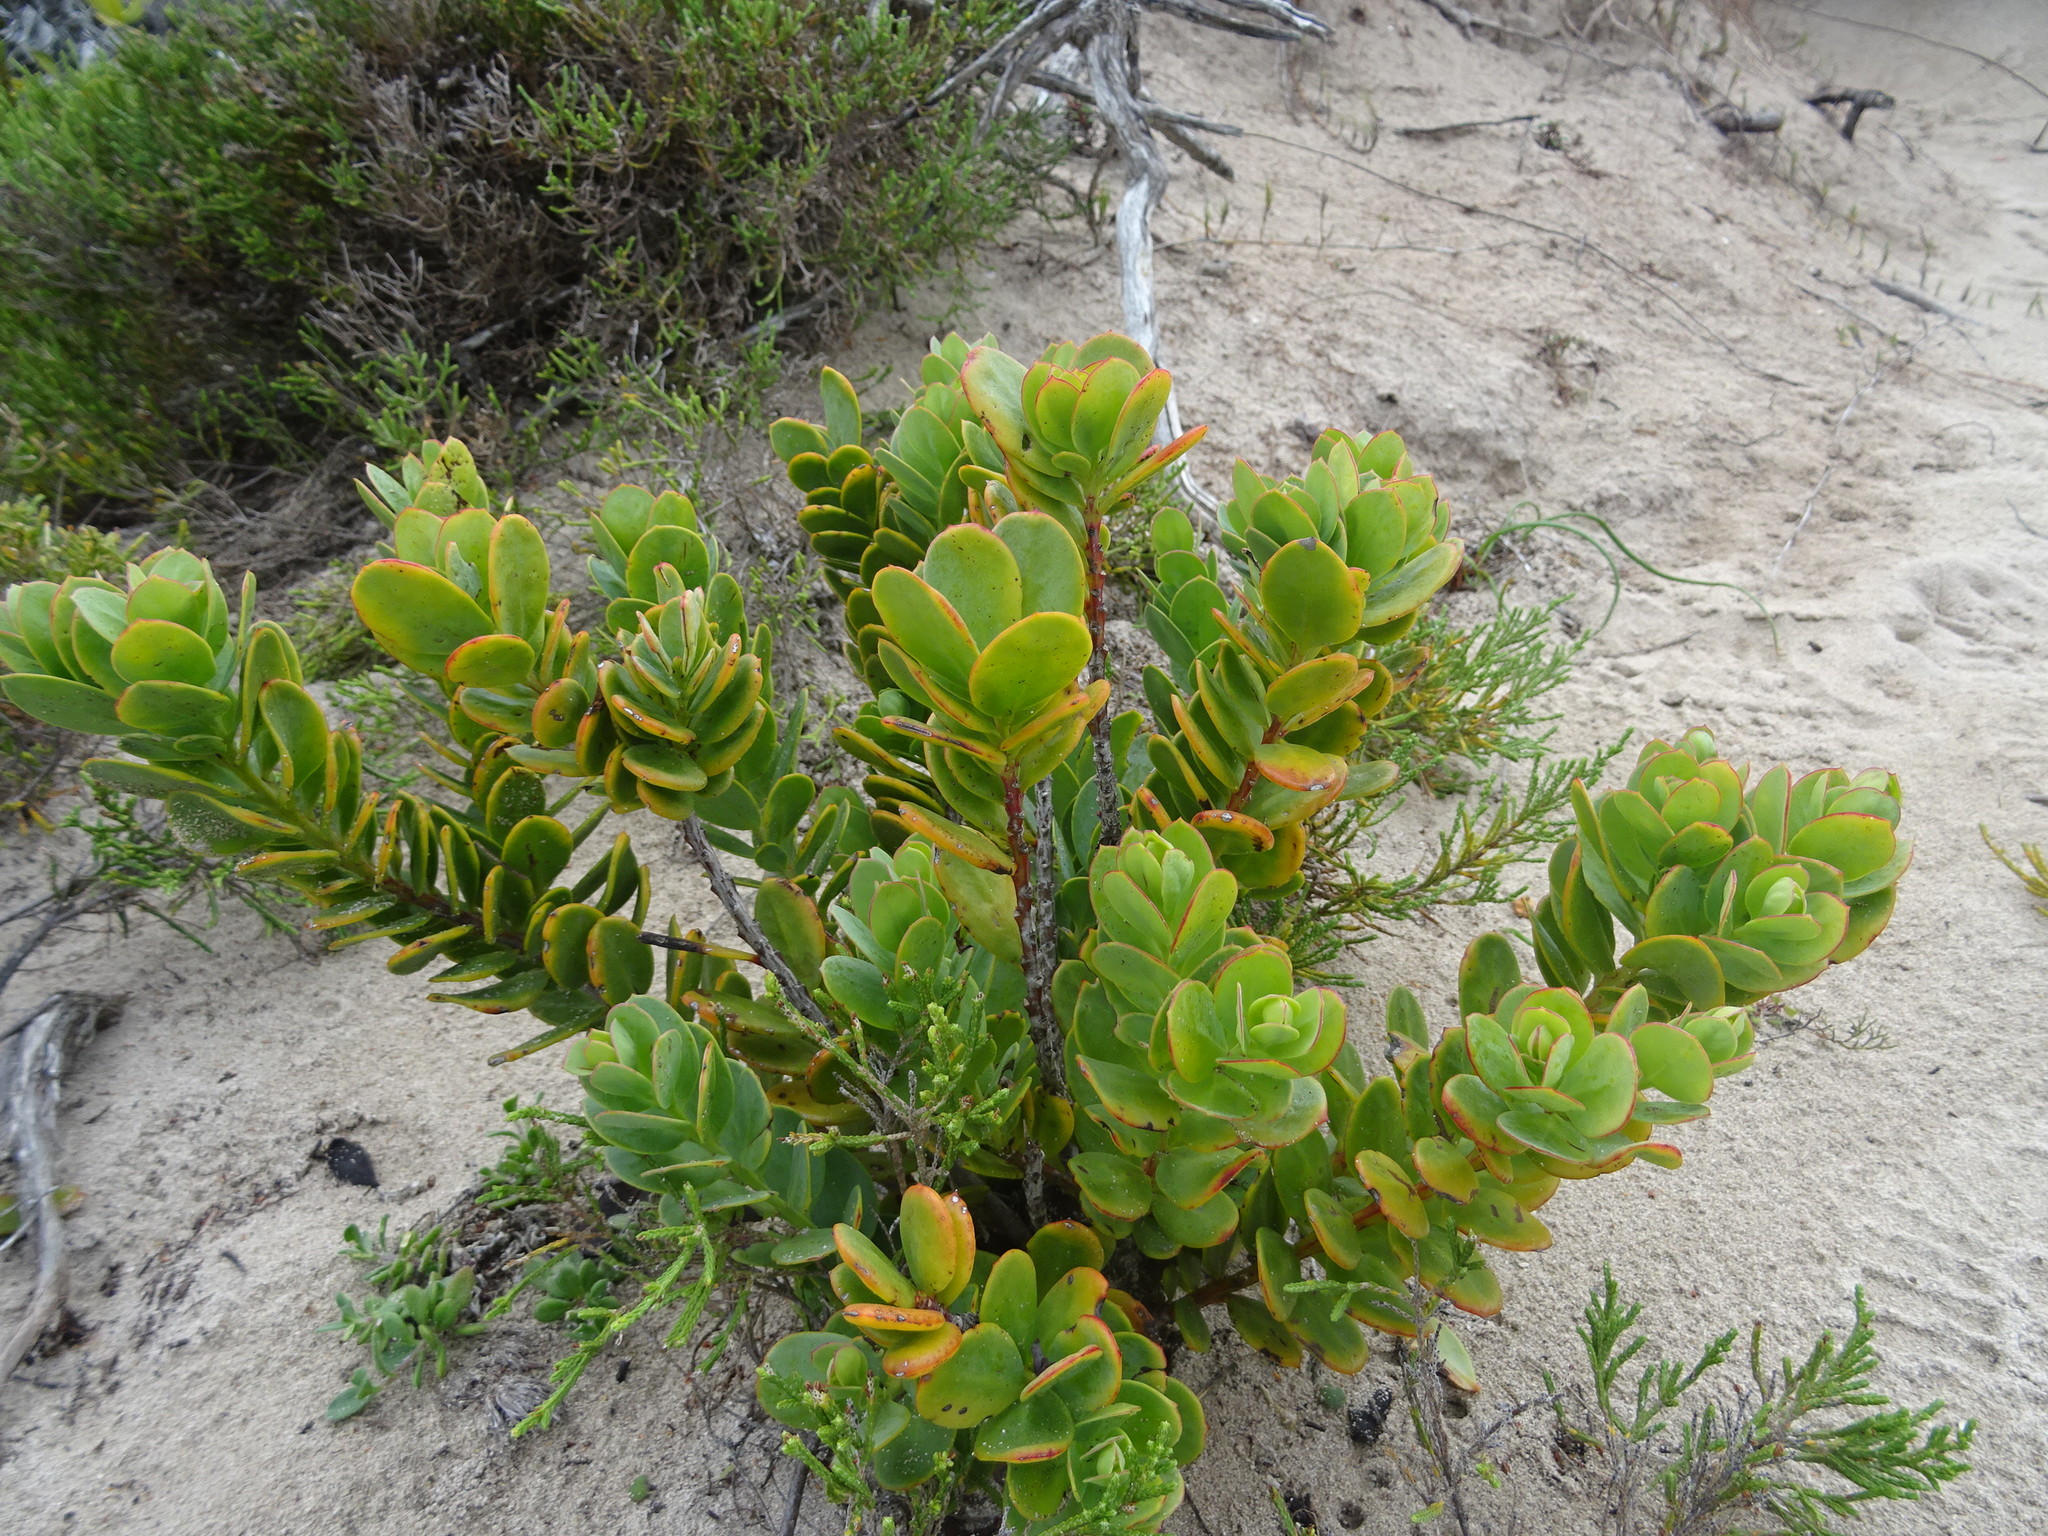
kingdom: Plantae
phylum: Tracheophyta
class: Magnoliopsida
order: Santalales
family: Santalaceae
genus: Osyris
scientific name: Osyris compressa
